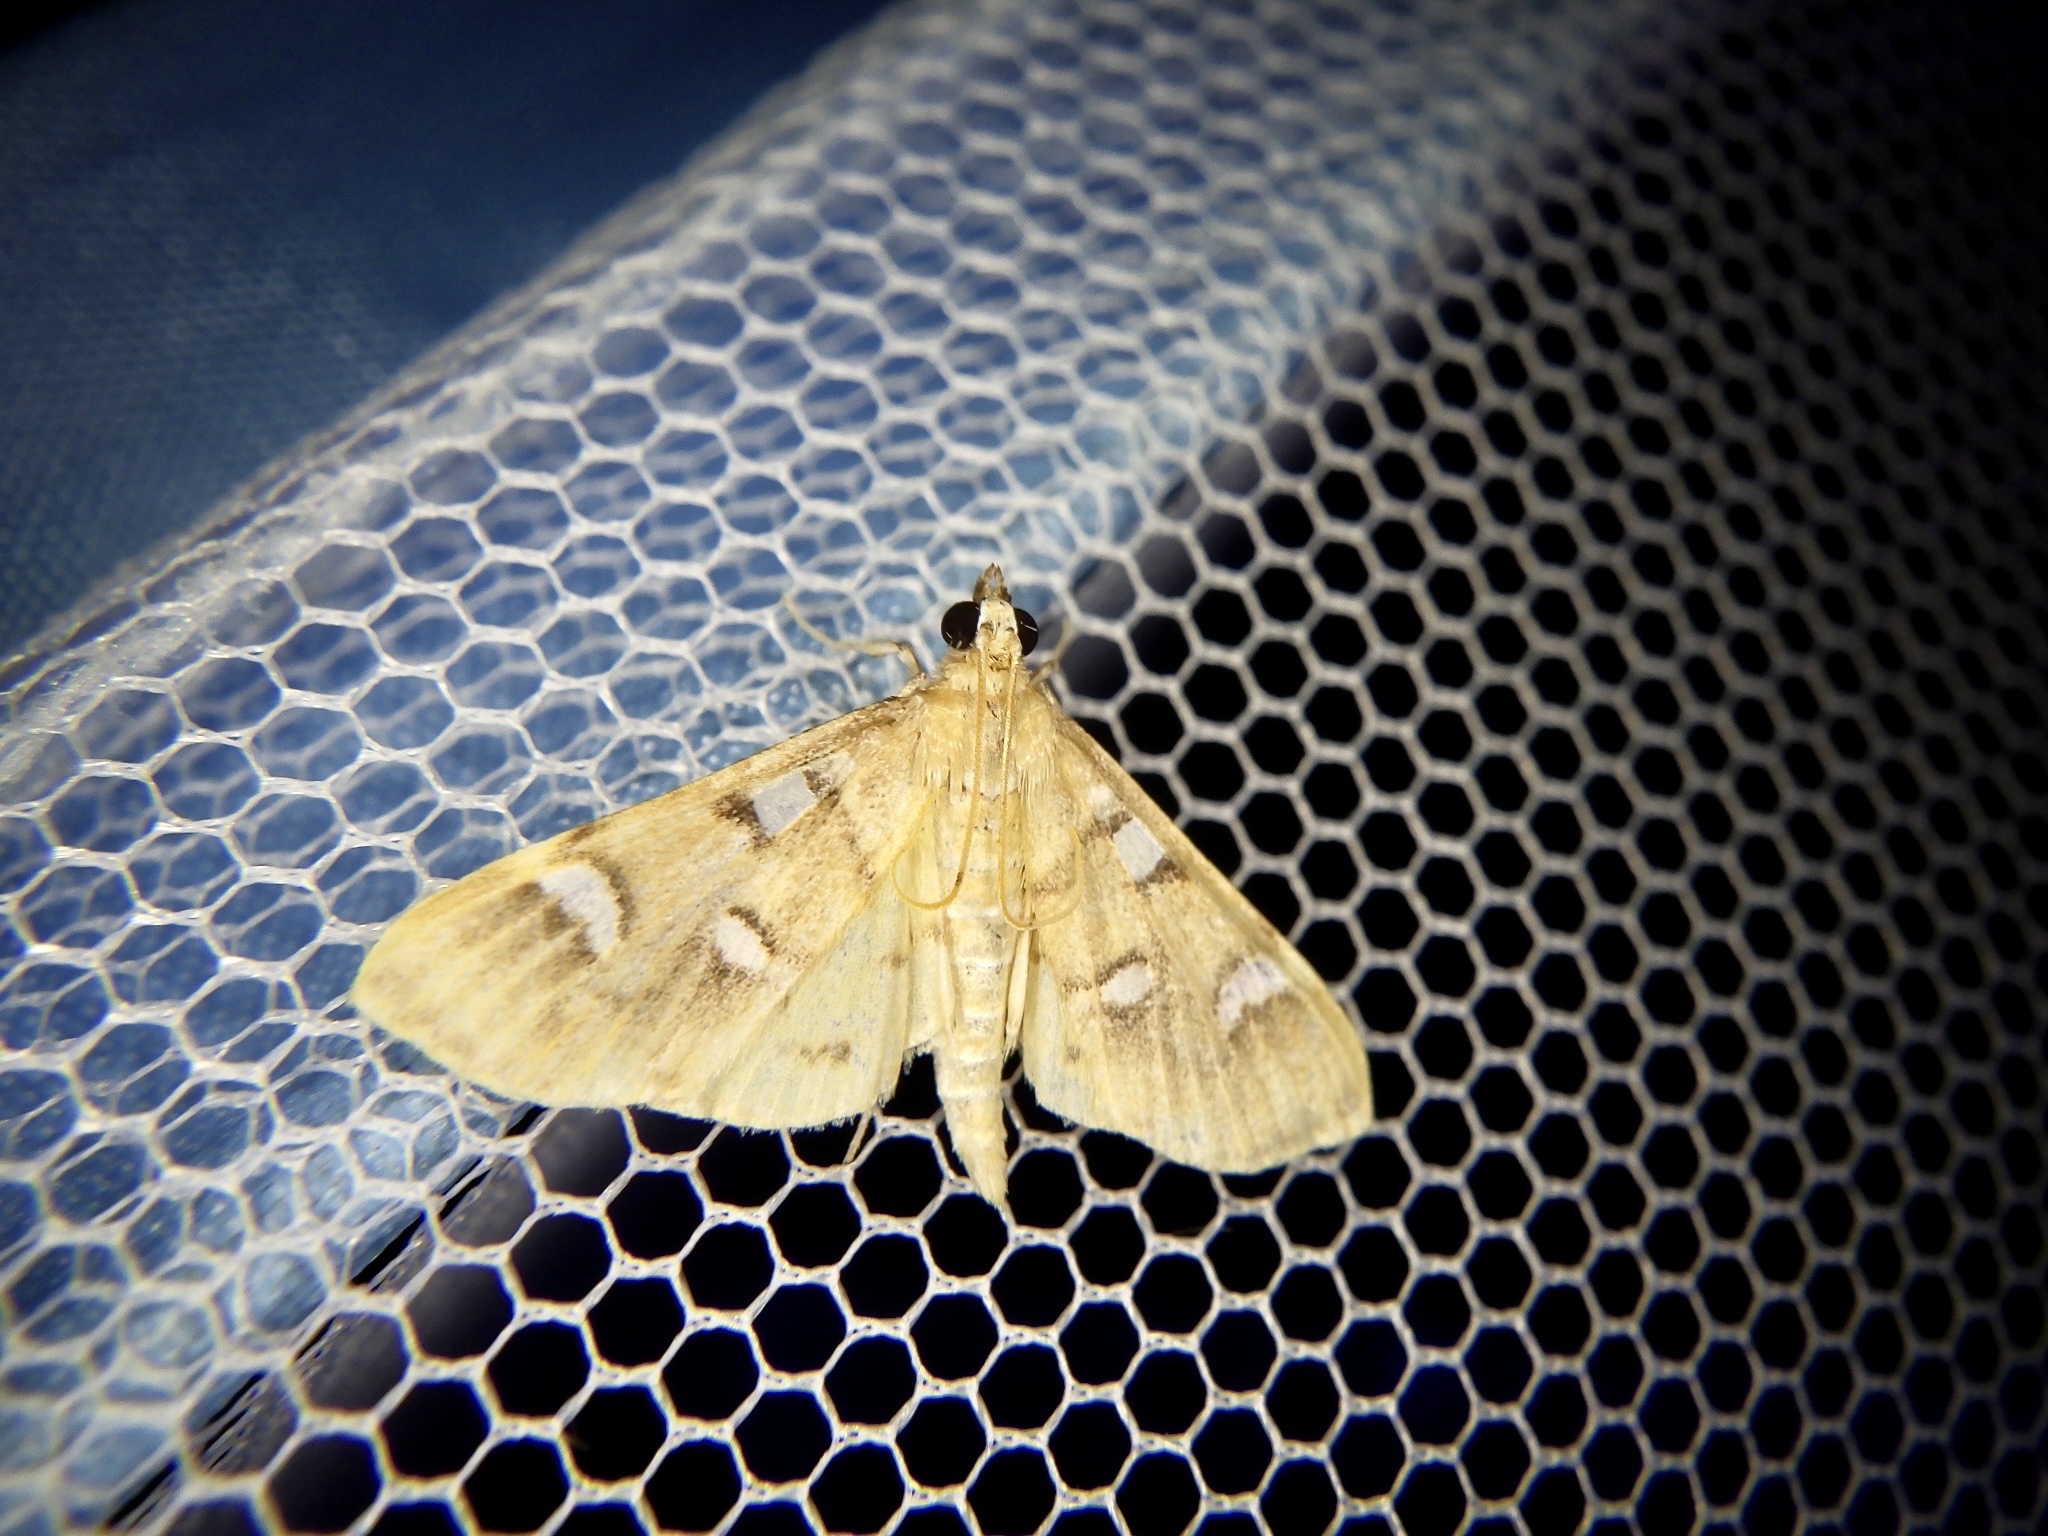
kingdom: Animalia
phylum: Arthropoda
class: Insecta
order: Lepidoptera
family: Crambidae
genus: Cotachena
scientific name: Cotachena pubescens
